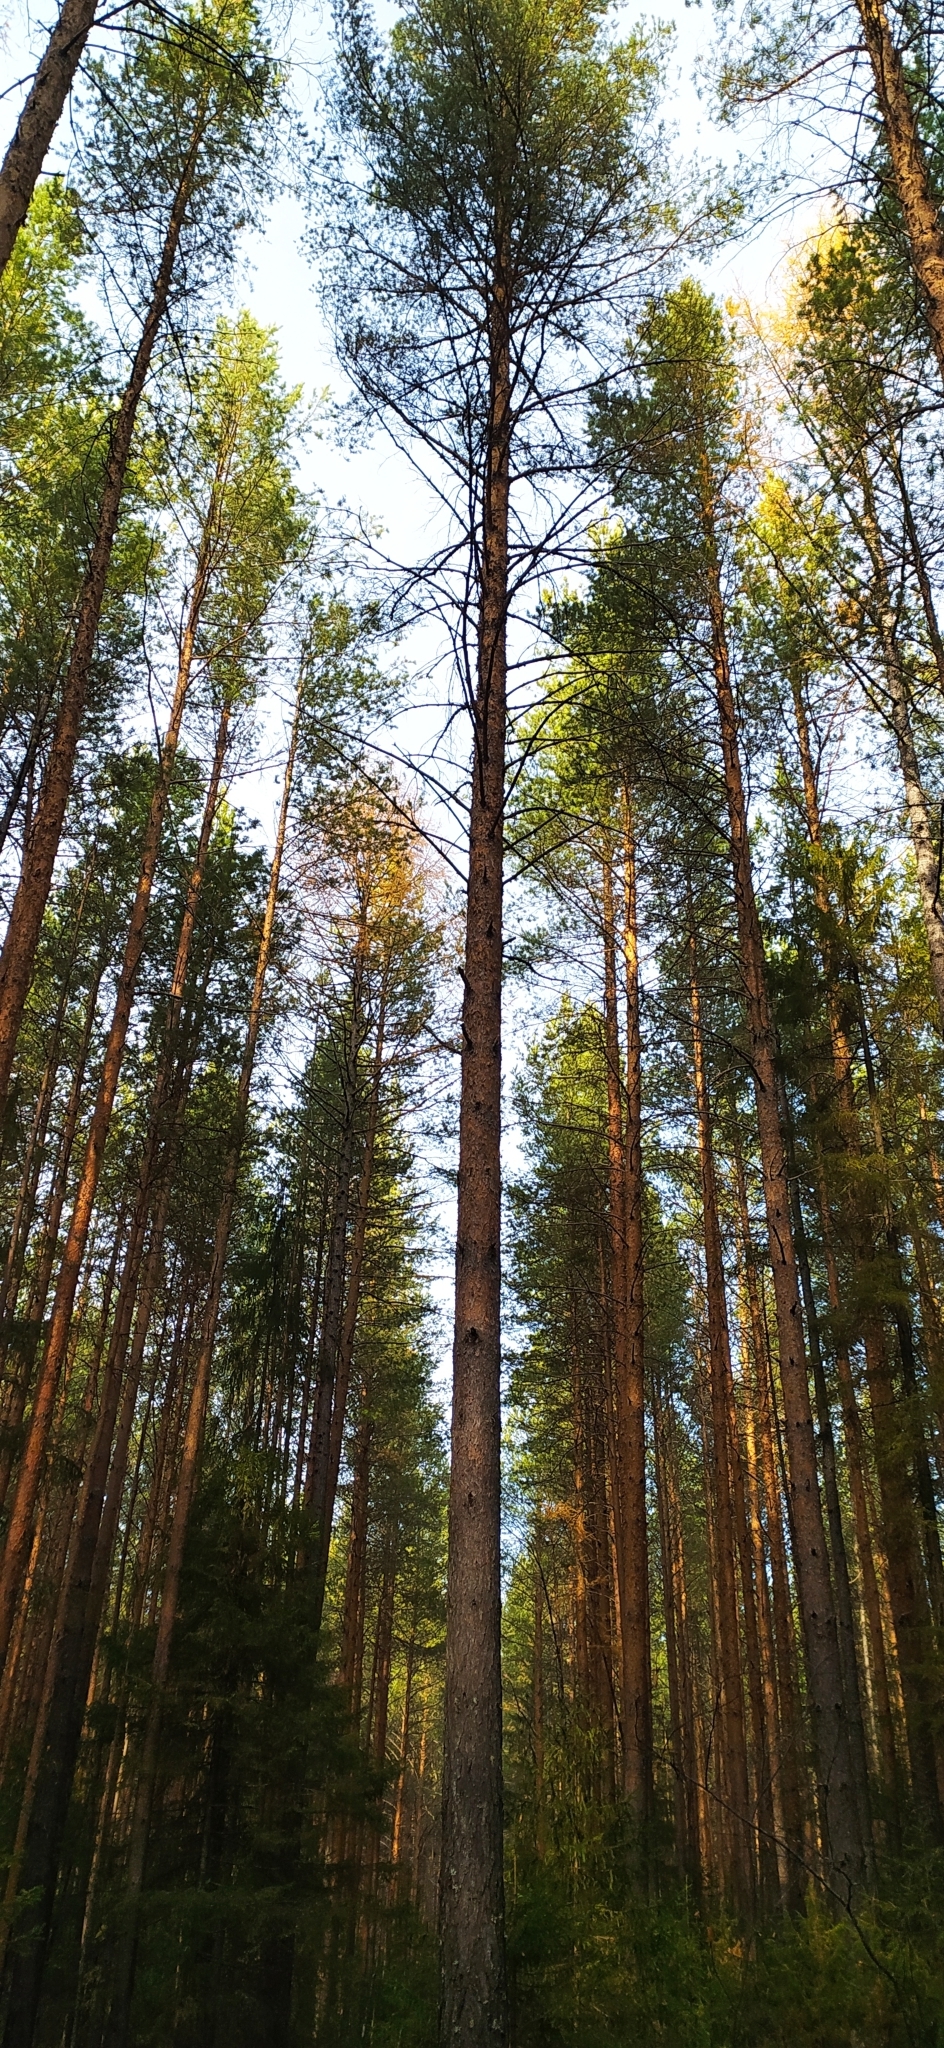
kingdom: Plantae
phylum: Tracheophyta
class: Pinopsida
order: Pinales
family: Pinaceae
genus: Pinus
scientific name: Pinus sylvestris
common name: Scots pine
